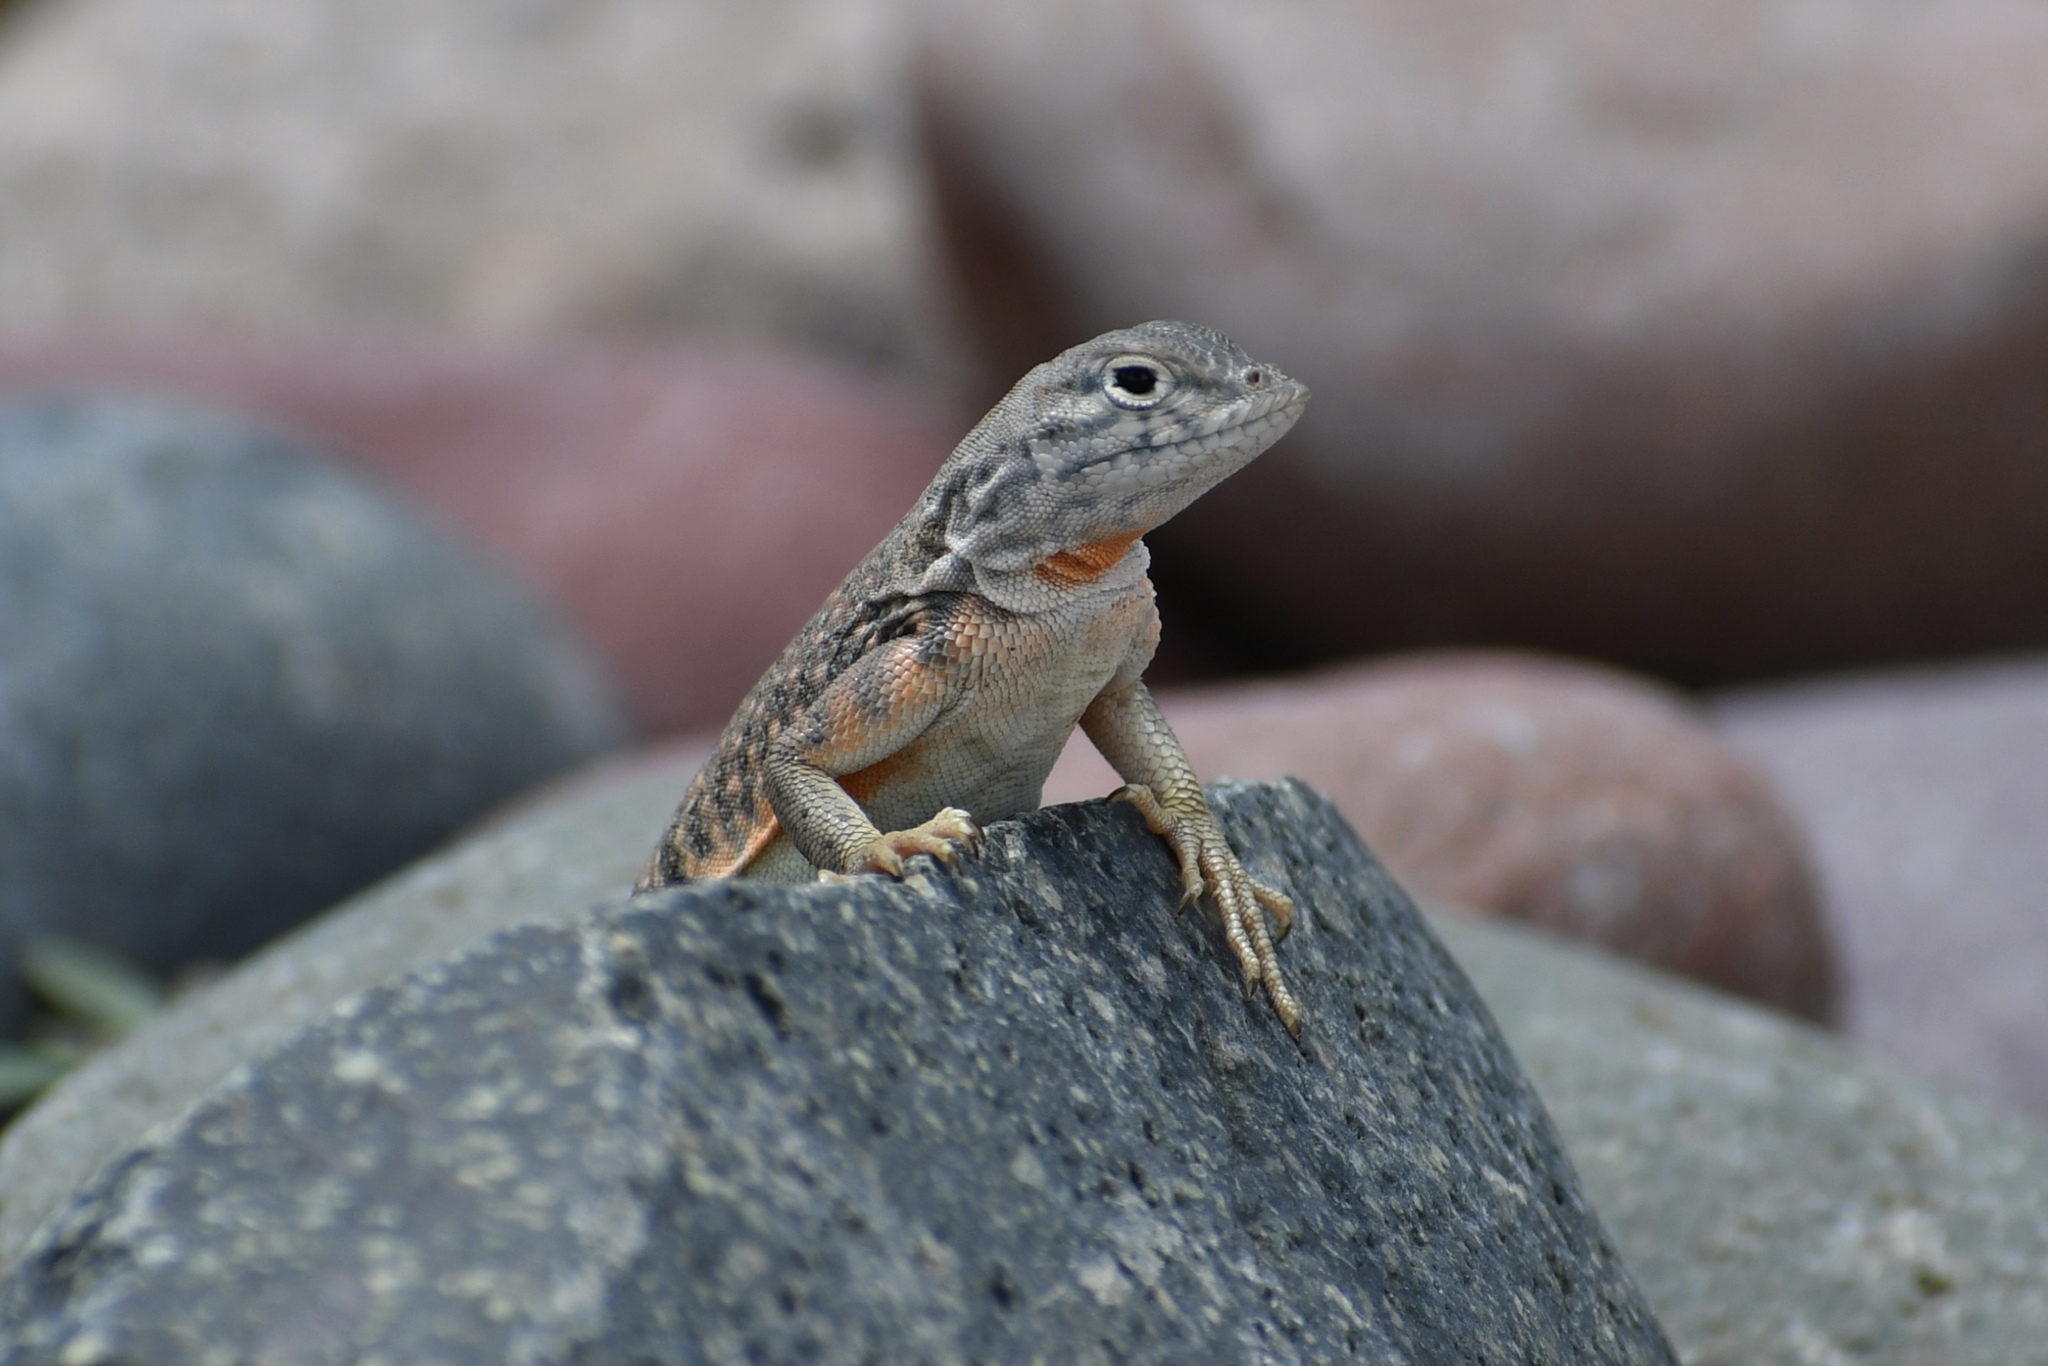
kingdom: Animalia
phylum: Chordata
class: Squamata
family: Phrynosomatidae
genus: Cophosaurus
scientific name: Cophosaurus texanus
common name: Greater earless lizard
